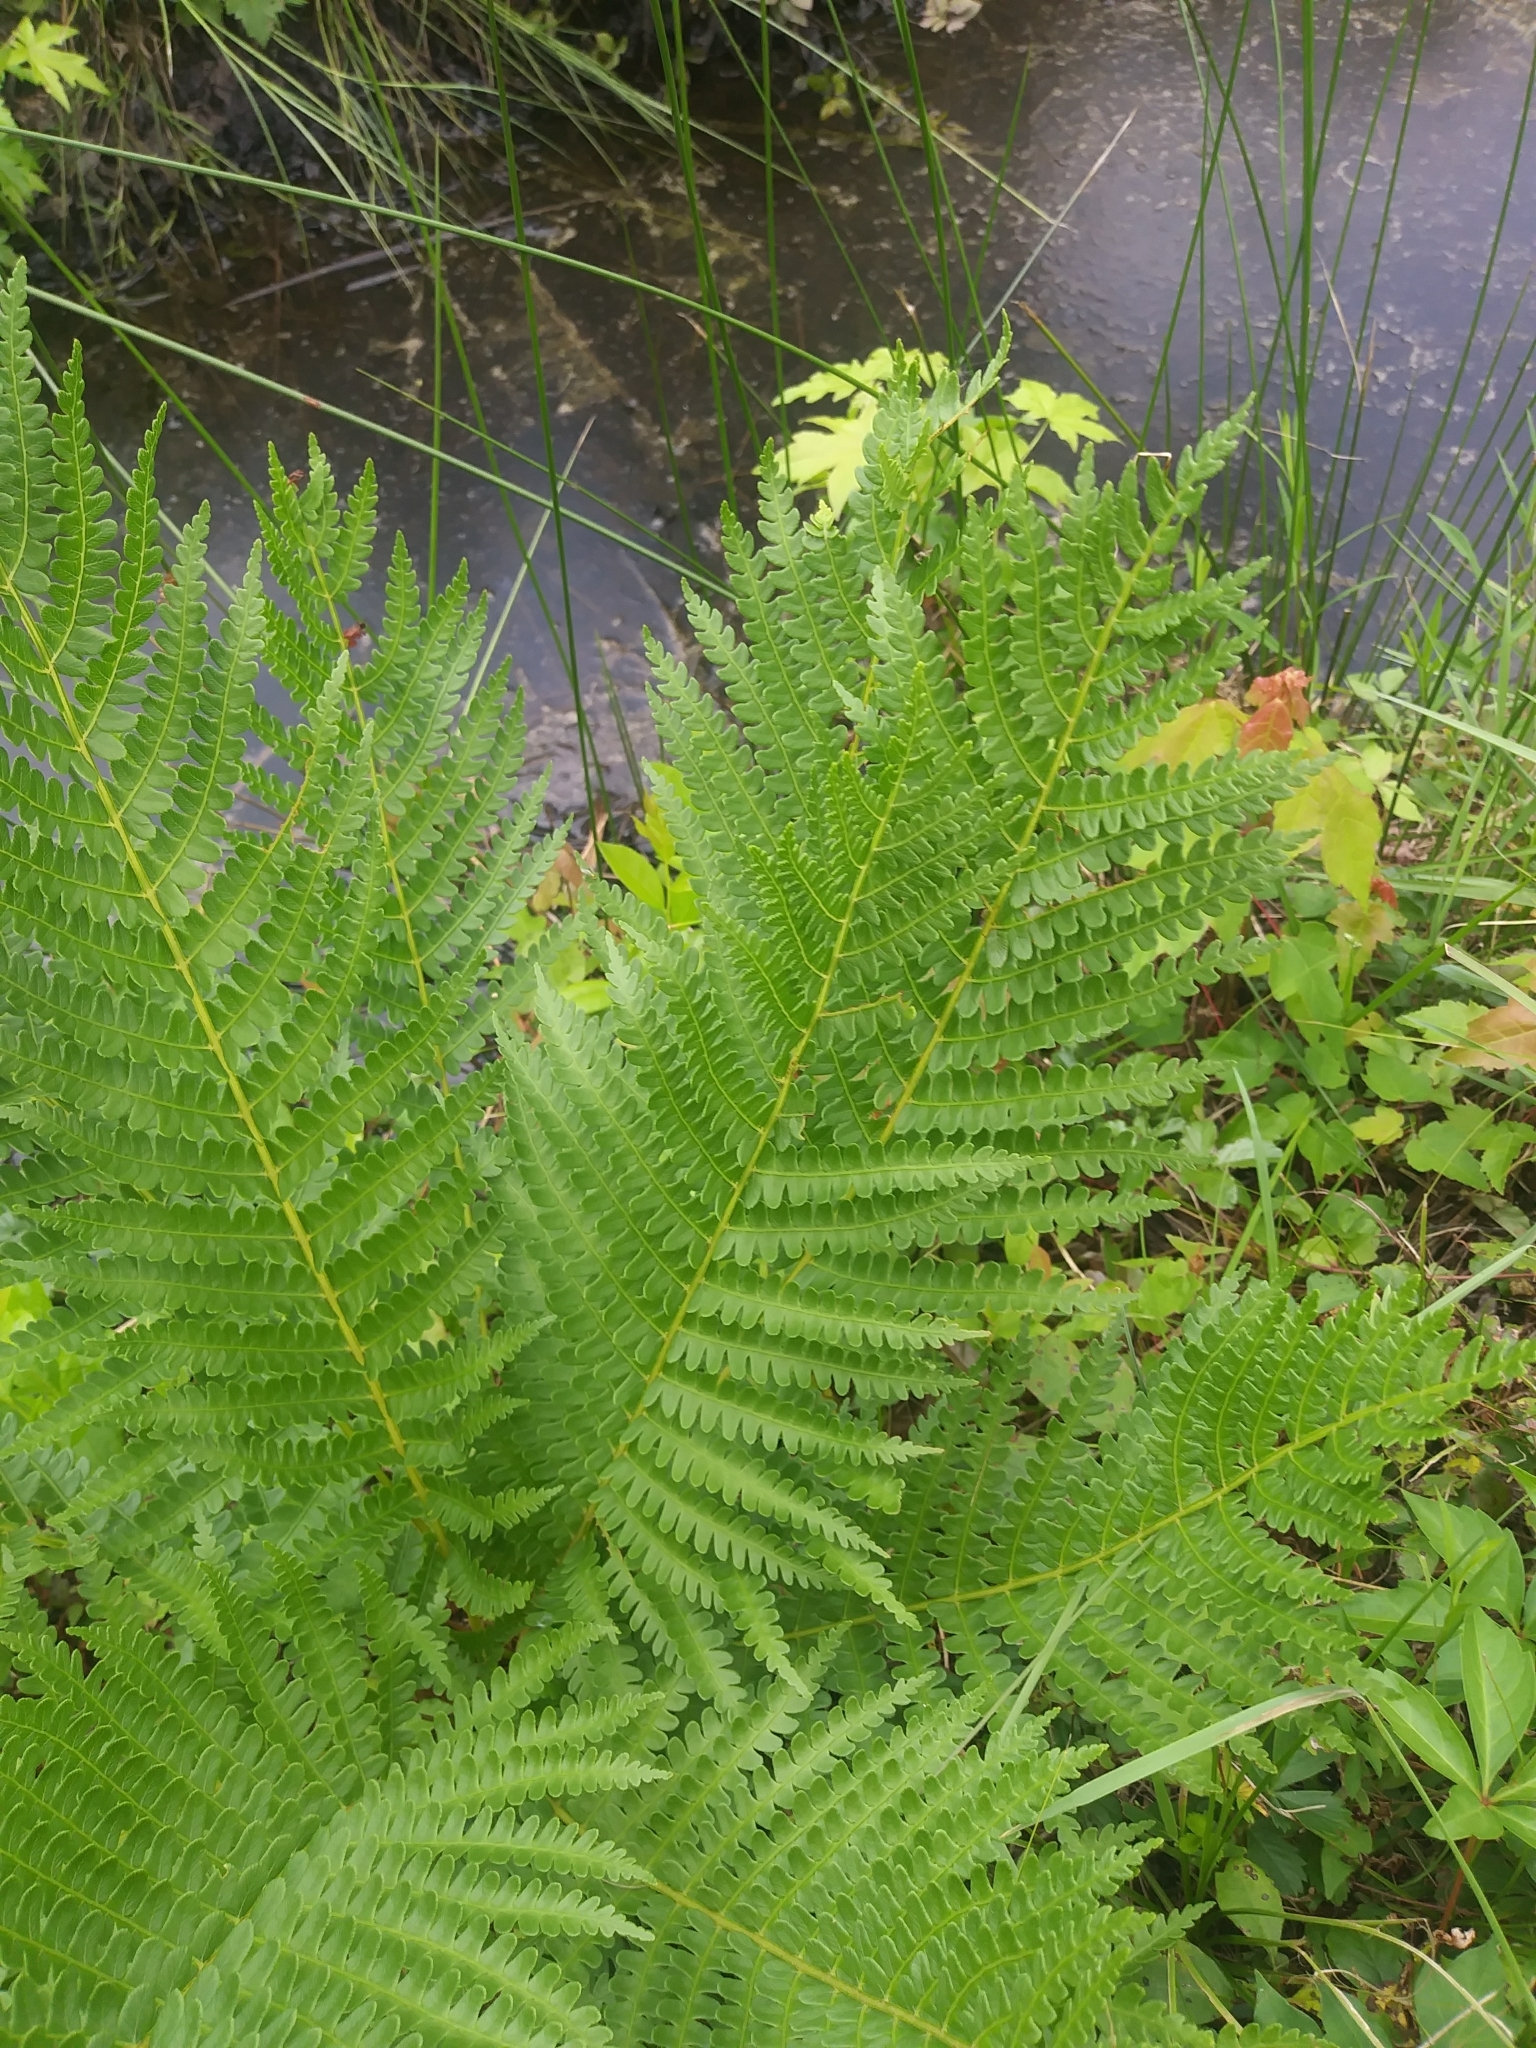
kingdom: Plantae
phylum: Tracheophyta
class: Polypodiopsida
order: Osmundales
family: Osmundaceae
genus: Osmundastrum
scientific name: Osmundastrum cinnamomeum
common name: Cinnamon fern
